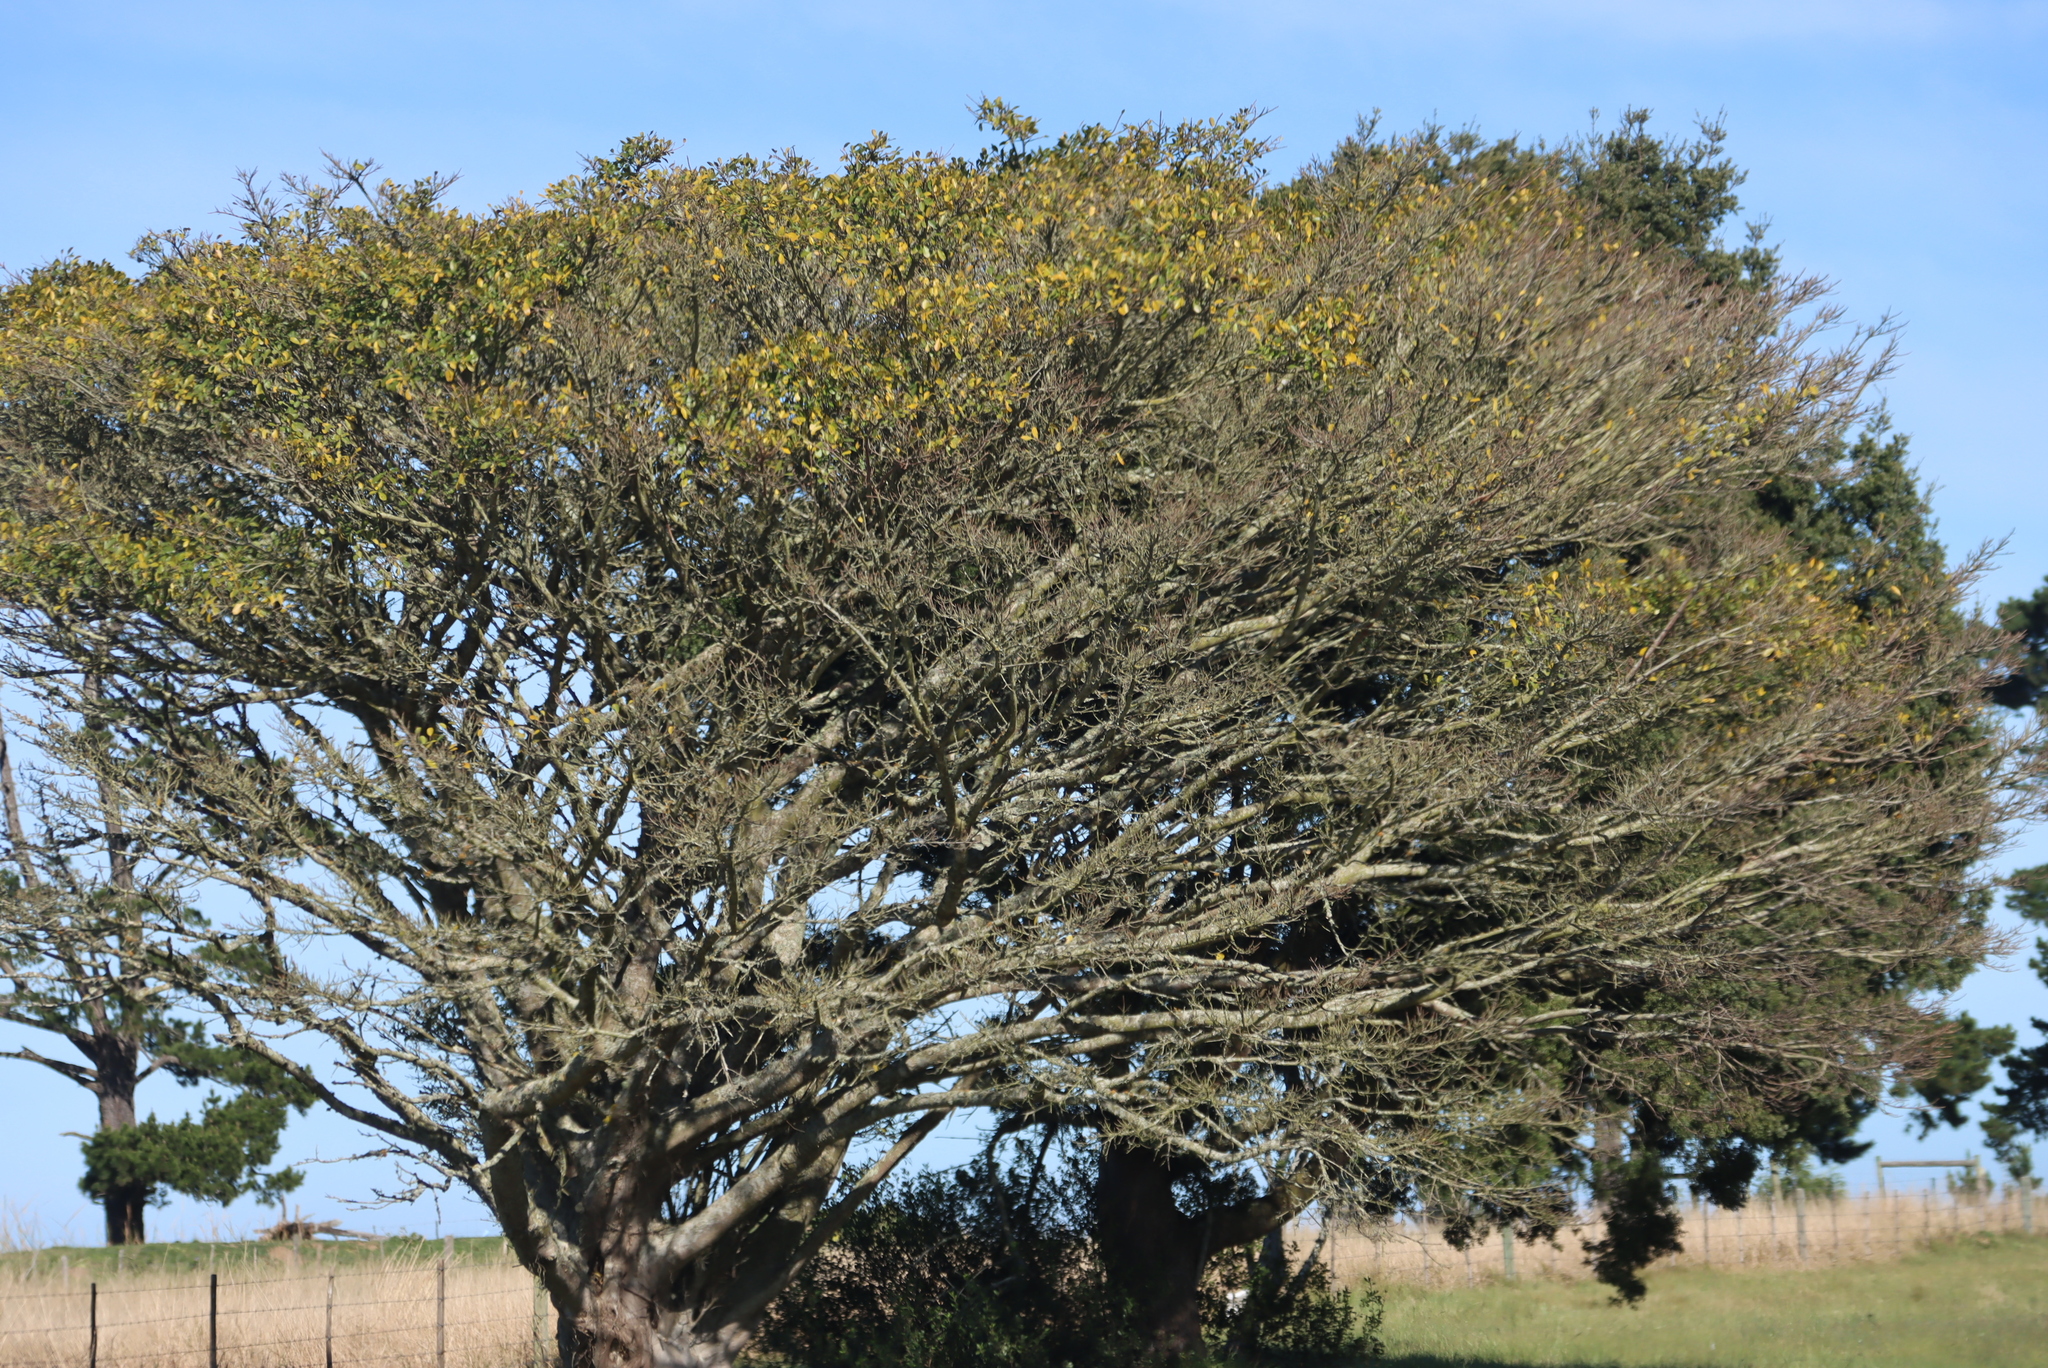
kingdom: Plantae
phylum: Tracheophyta
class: Magnoliopsida
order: Rosales
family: Moraceae
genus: Ficus
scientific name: Ficus thonningii
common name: Fig
